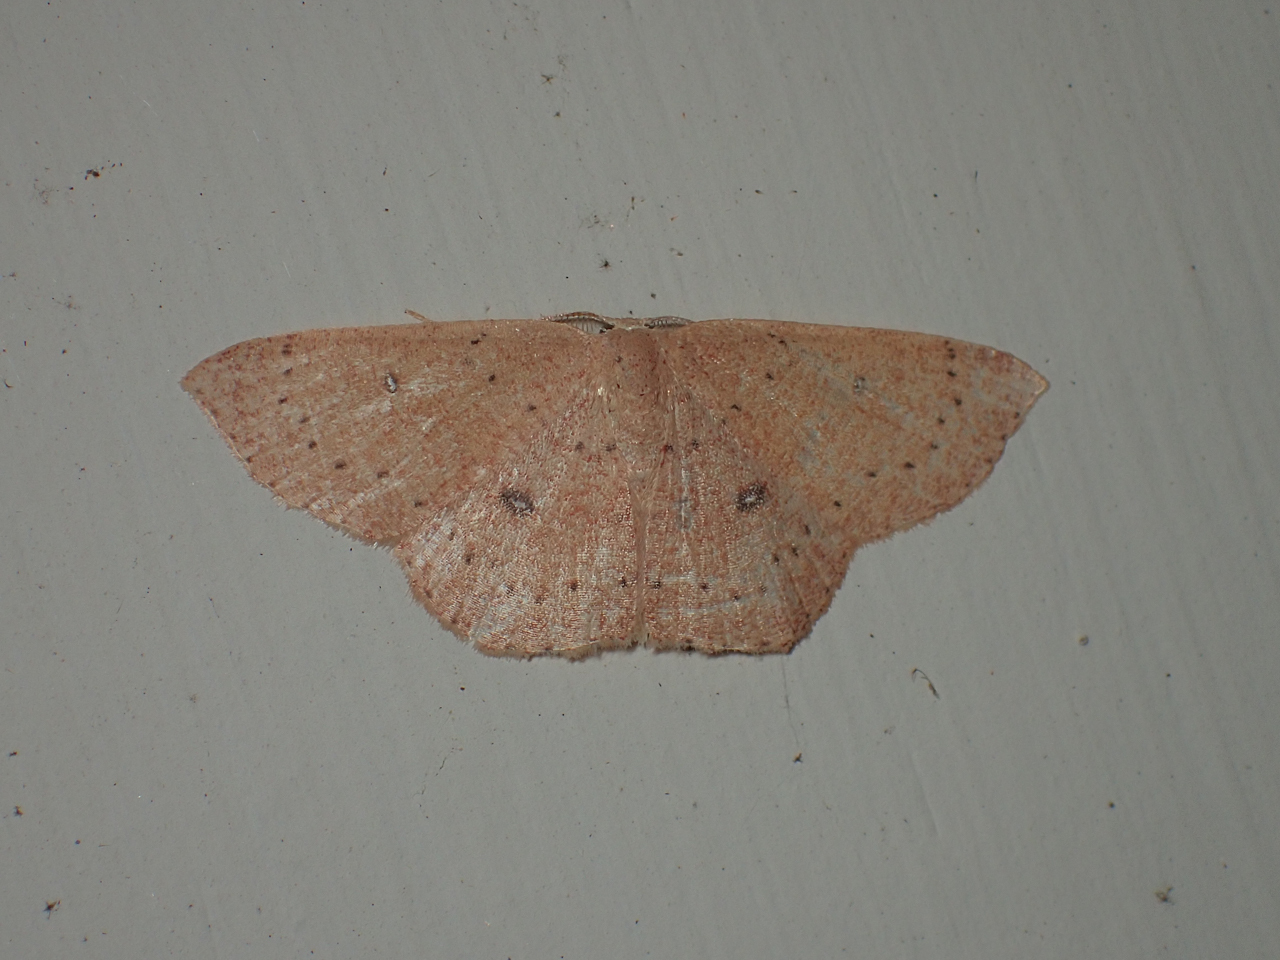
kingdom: Animalia
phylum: Arthropoda
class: Insecta
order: Lepidoptera
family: Geometridae
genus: Cyclophora
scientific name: Cyclophora packardi
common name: Packard's wave
